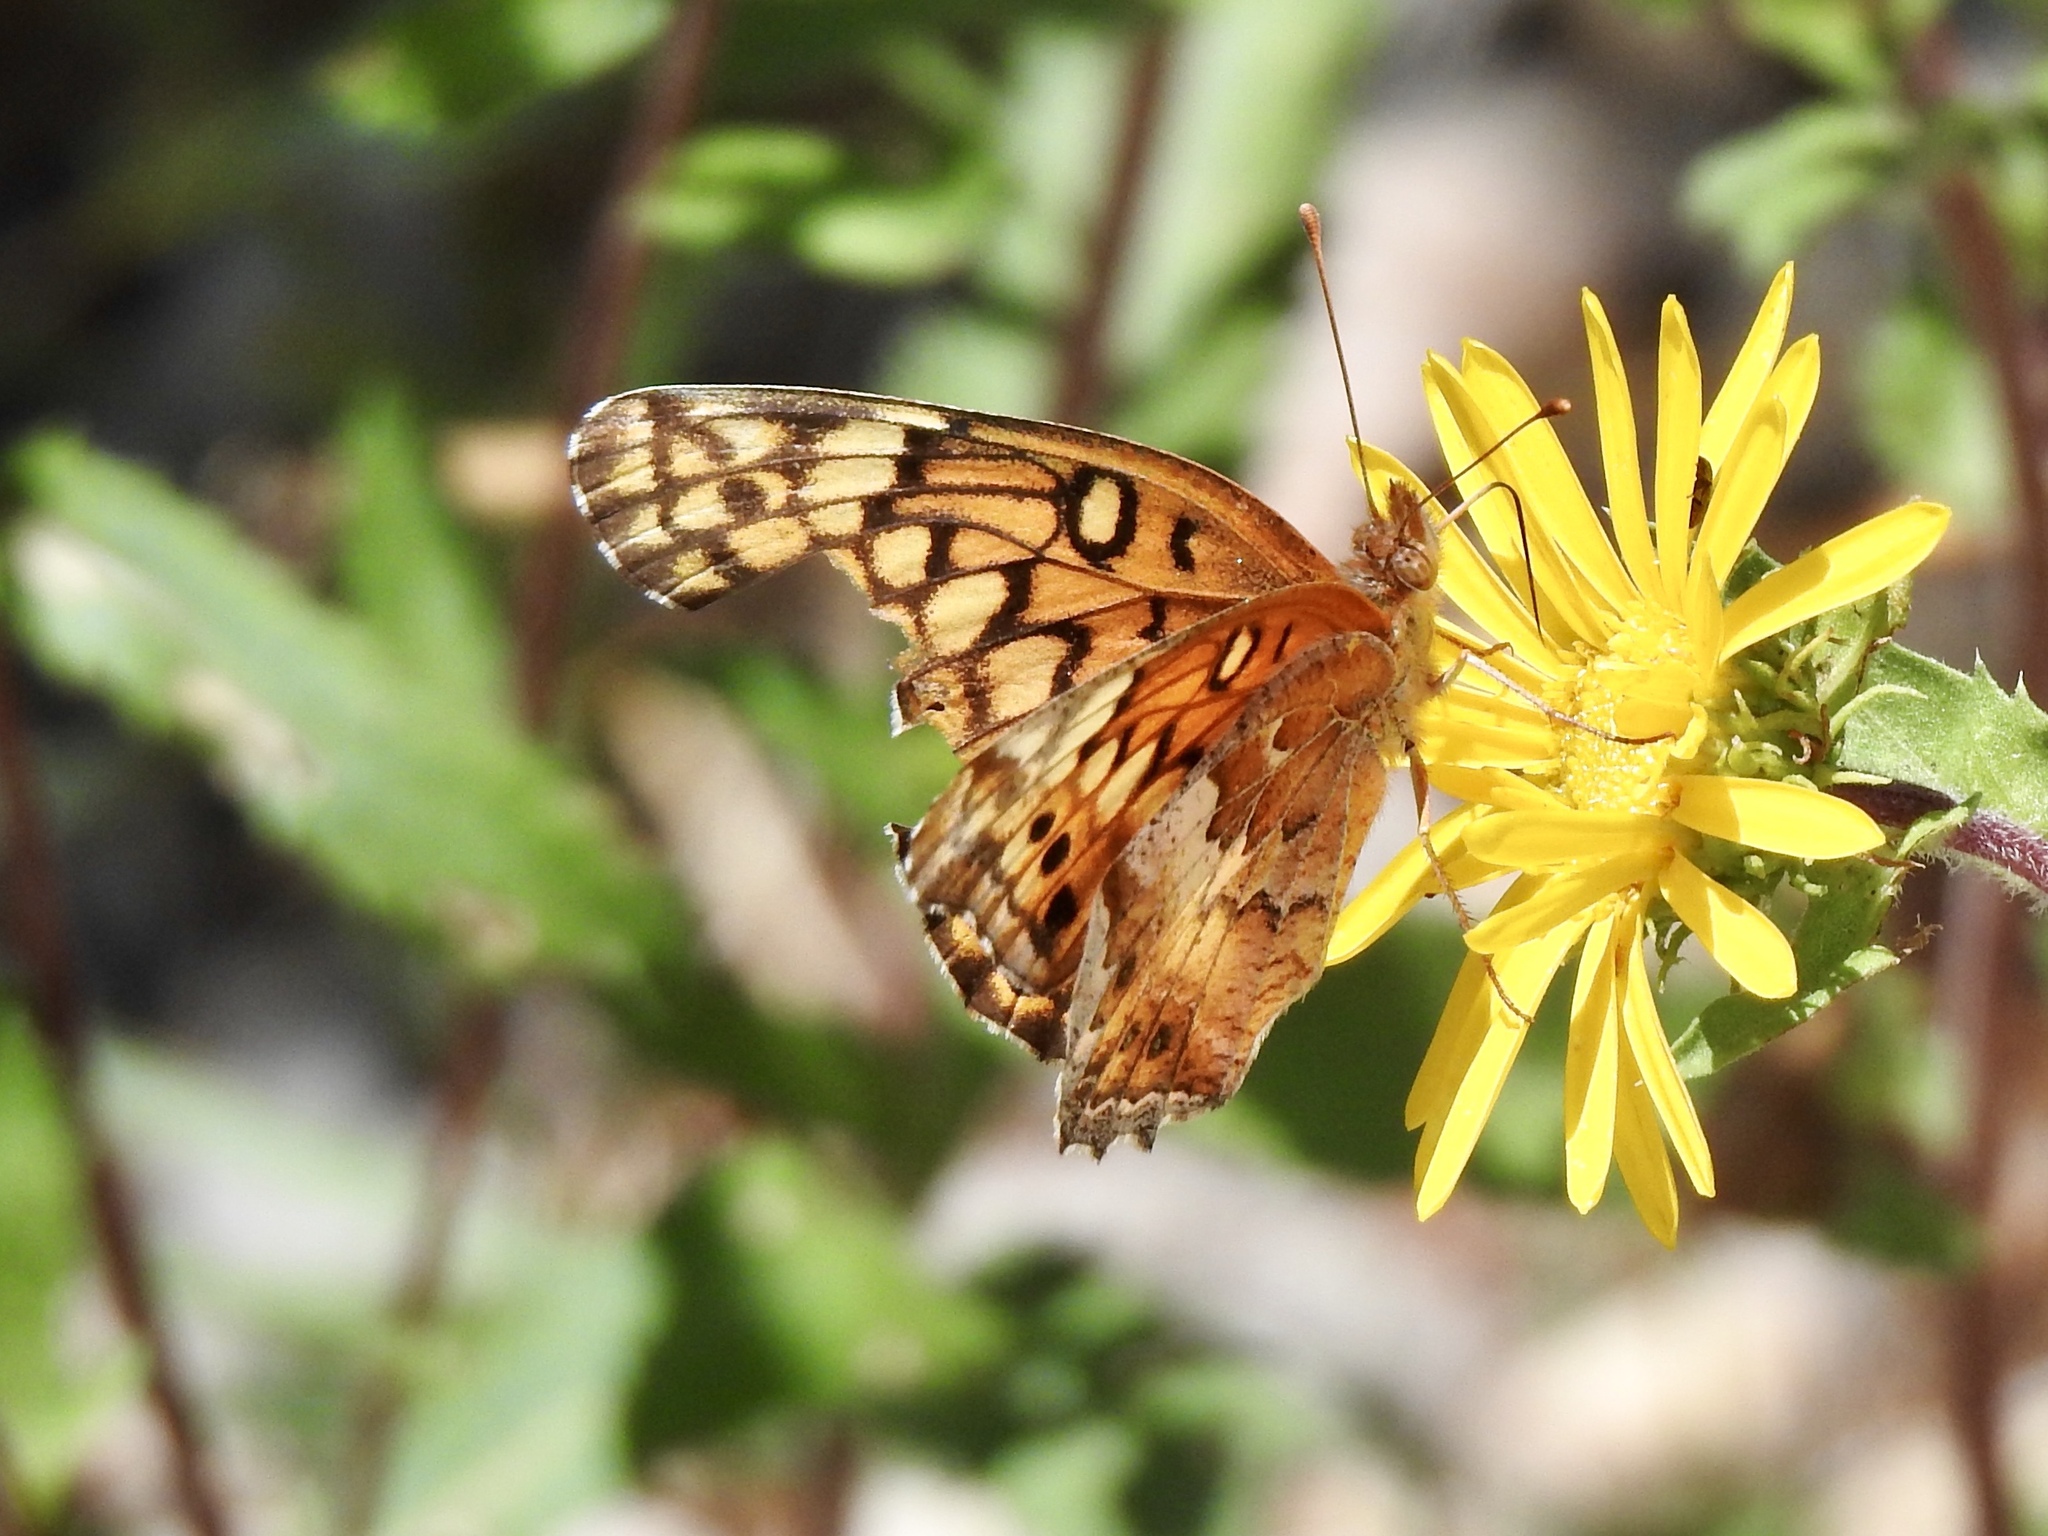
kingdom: Animalia
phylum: Arthropoda
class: Insecta
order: Lepidoptera
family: Nymphalidae
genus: Euptoieta
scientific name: Euptoieta claudia
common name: Variegated fritillary
